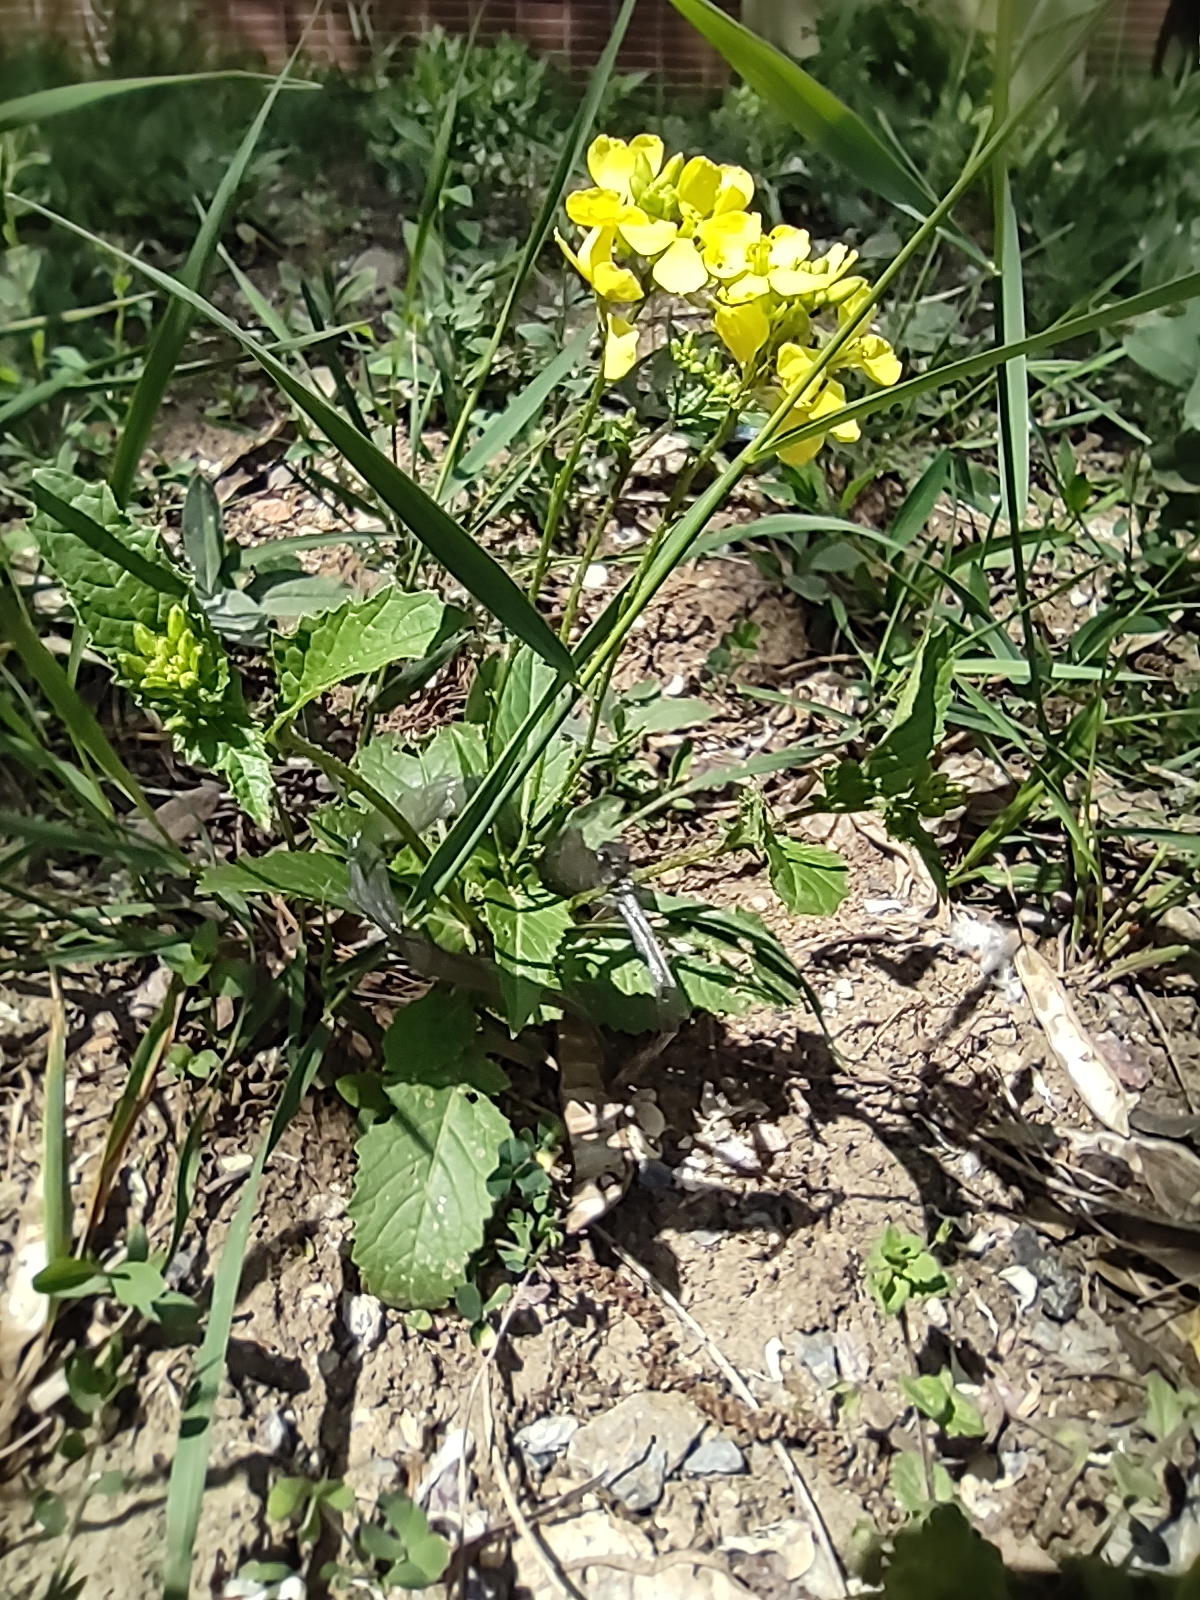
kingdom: Plantae
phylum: Tracheophyta
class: Magnoliopsida
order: Brassicales
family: Brassicaceae
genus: Sinapis
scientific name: Sinapis arvensis
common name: Charlock
